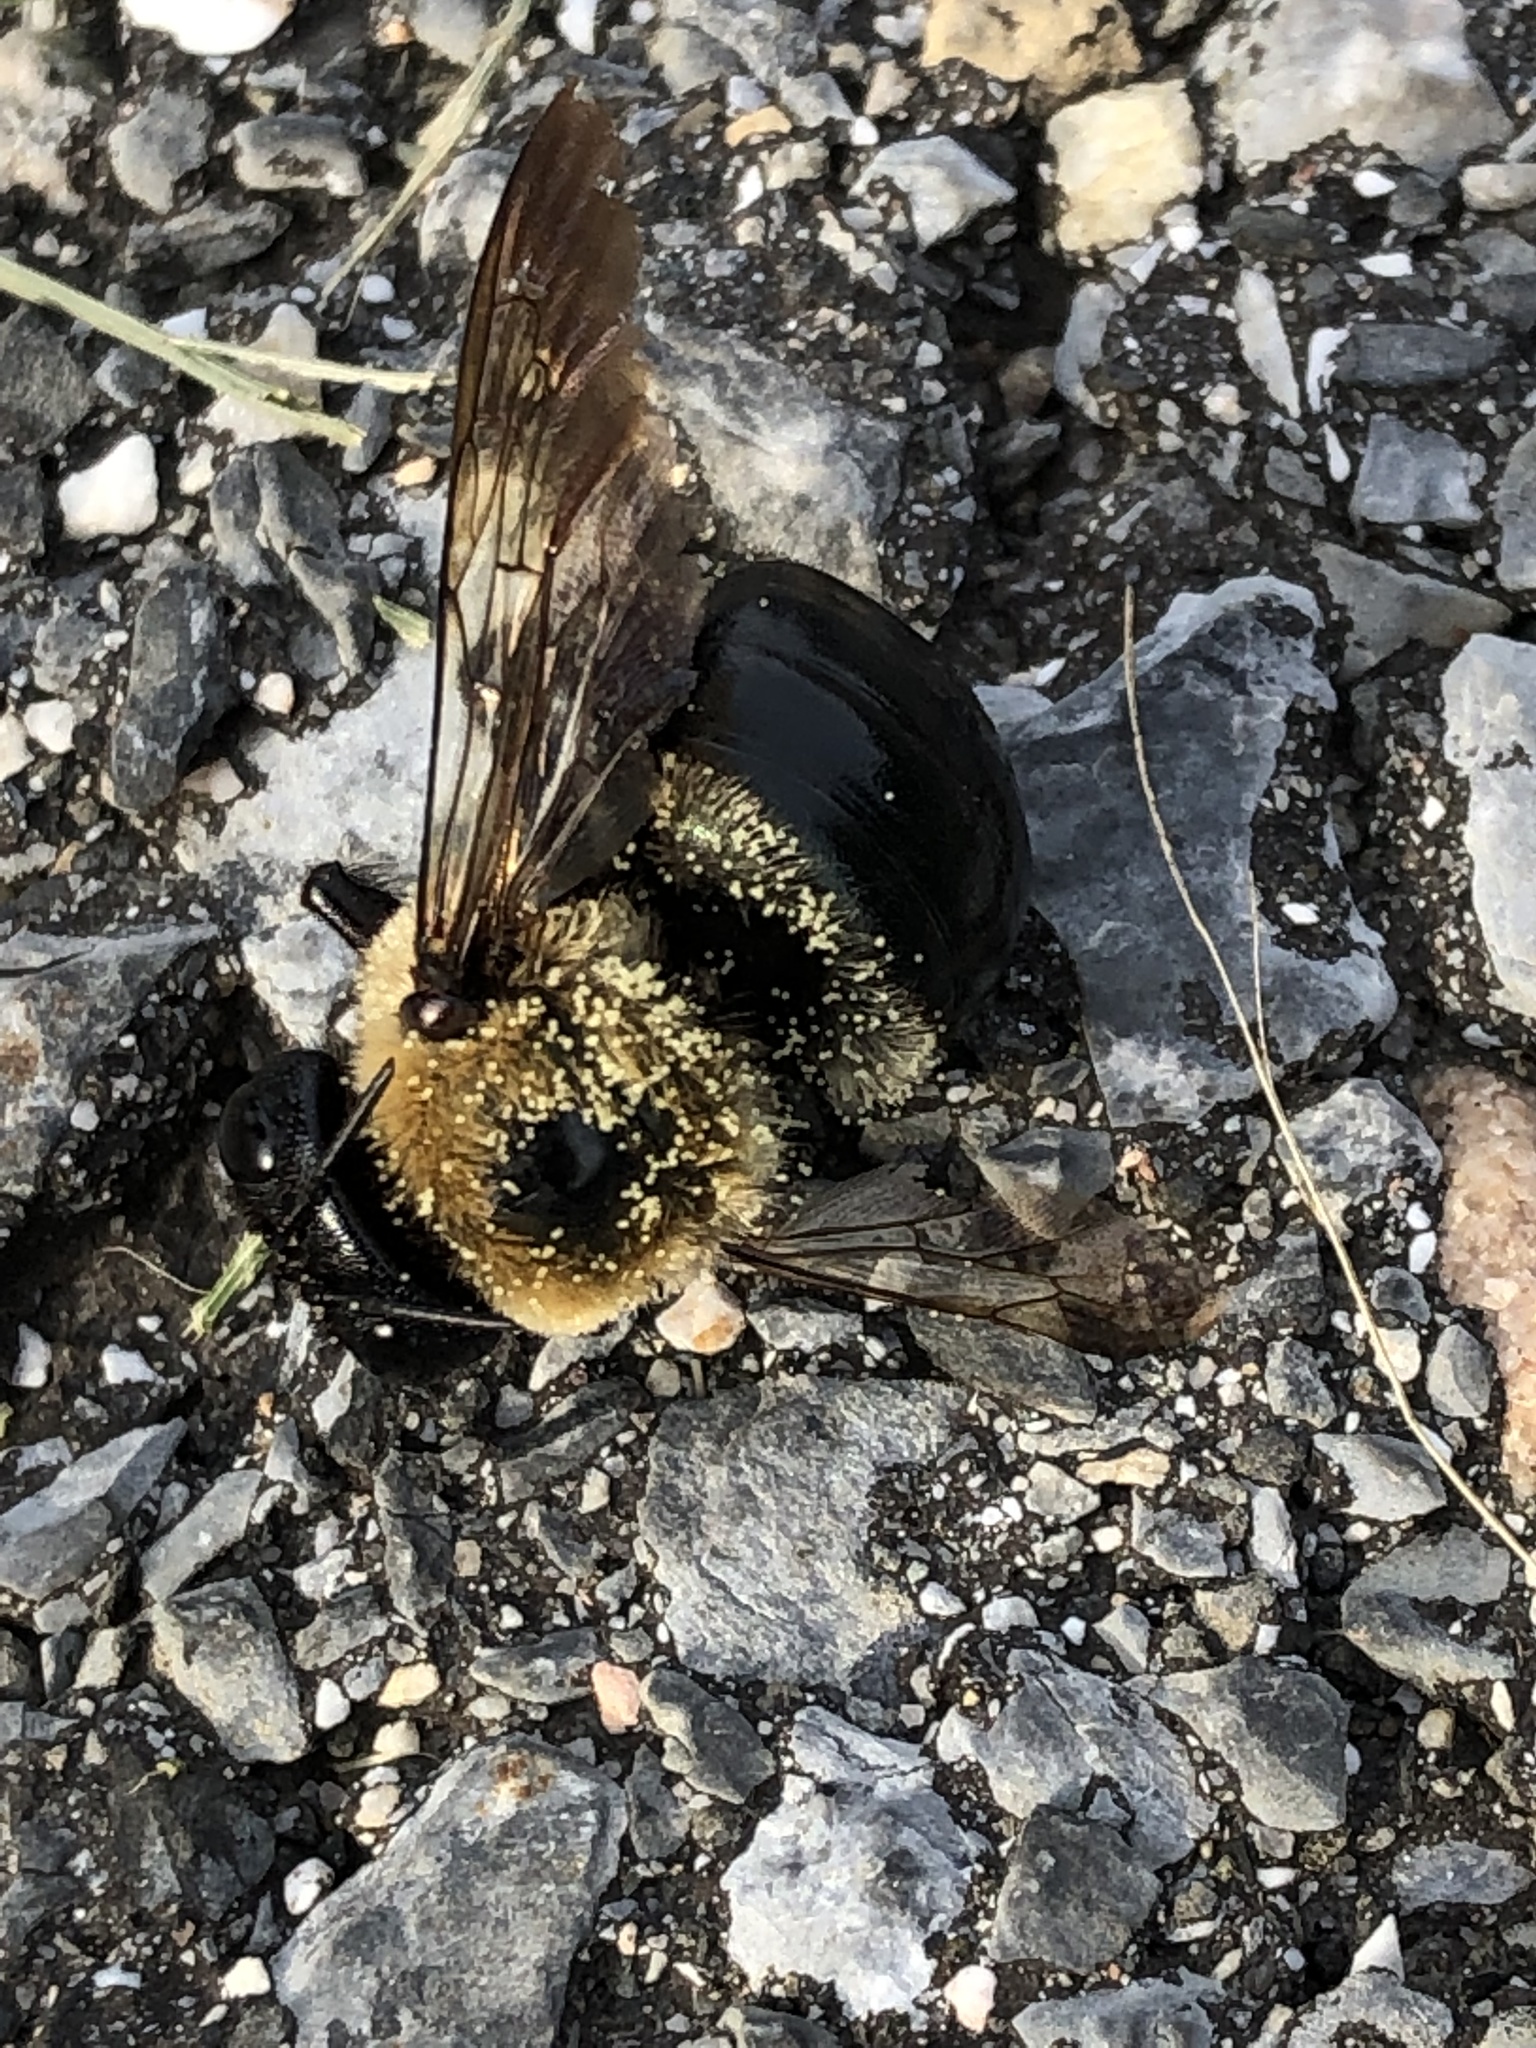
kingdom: Animalia
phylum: Arthropoda
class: Insecta
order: Hymenoptera
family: Apidae
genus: Xylocopa
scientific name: Xylocopa virginica
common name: Carpenter bee
